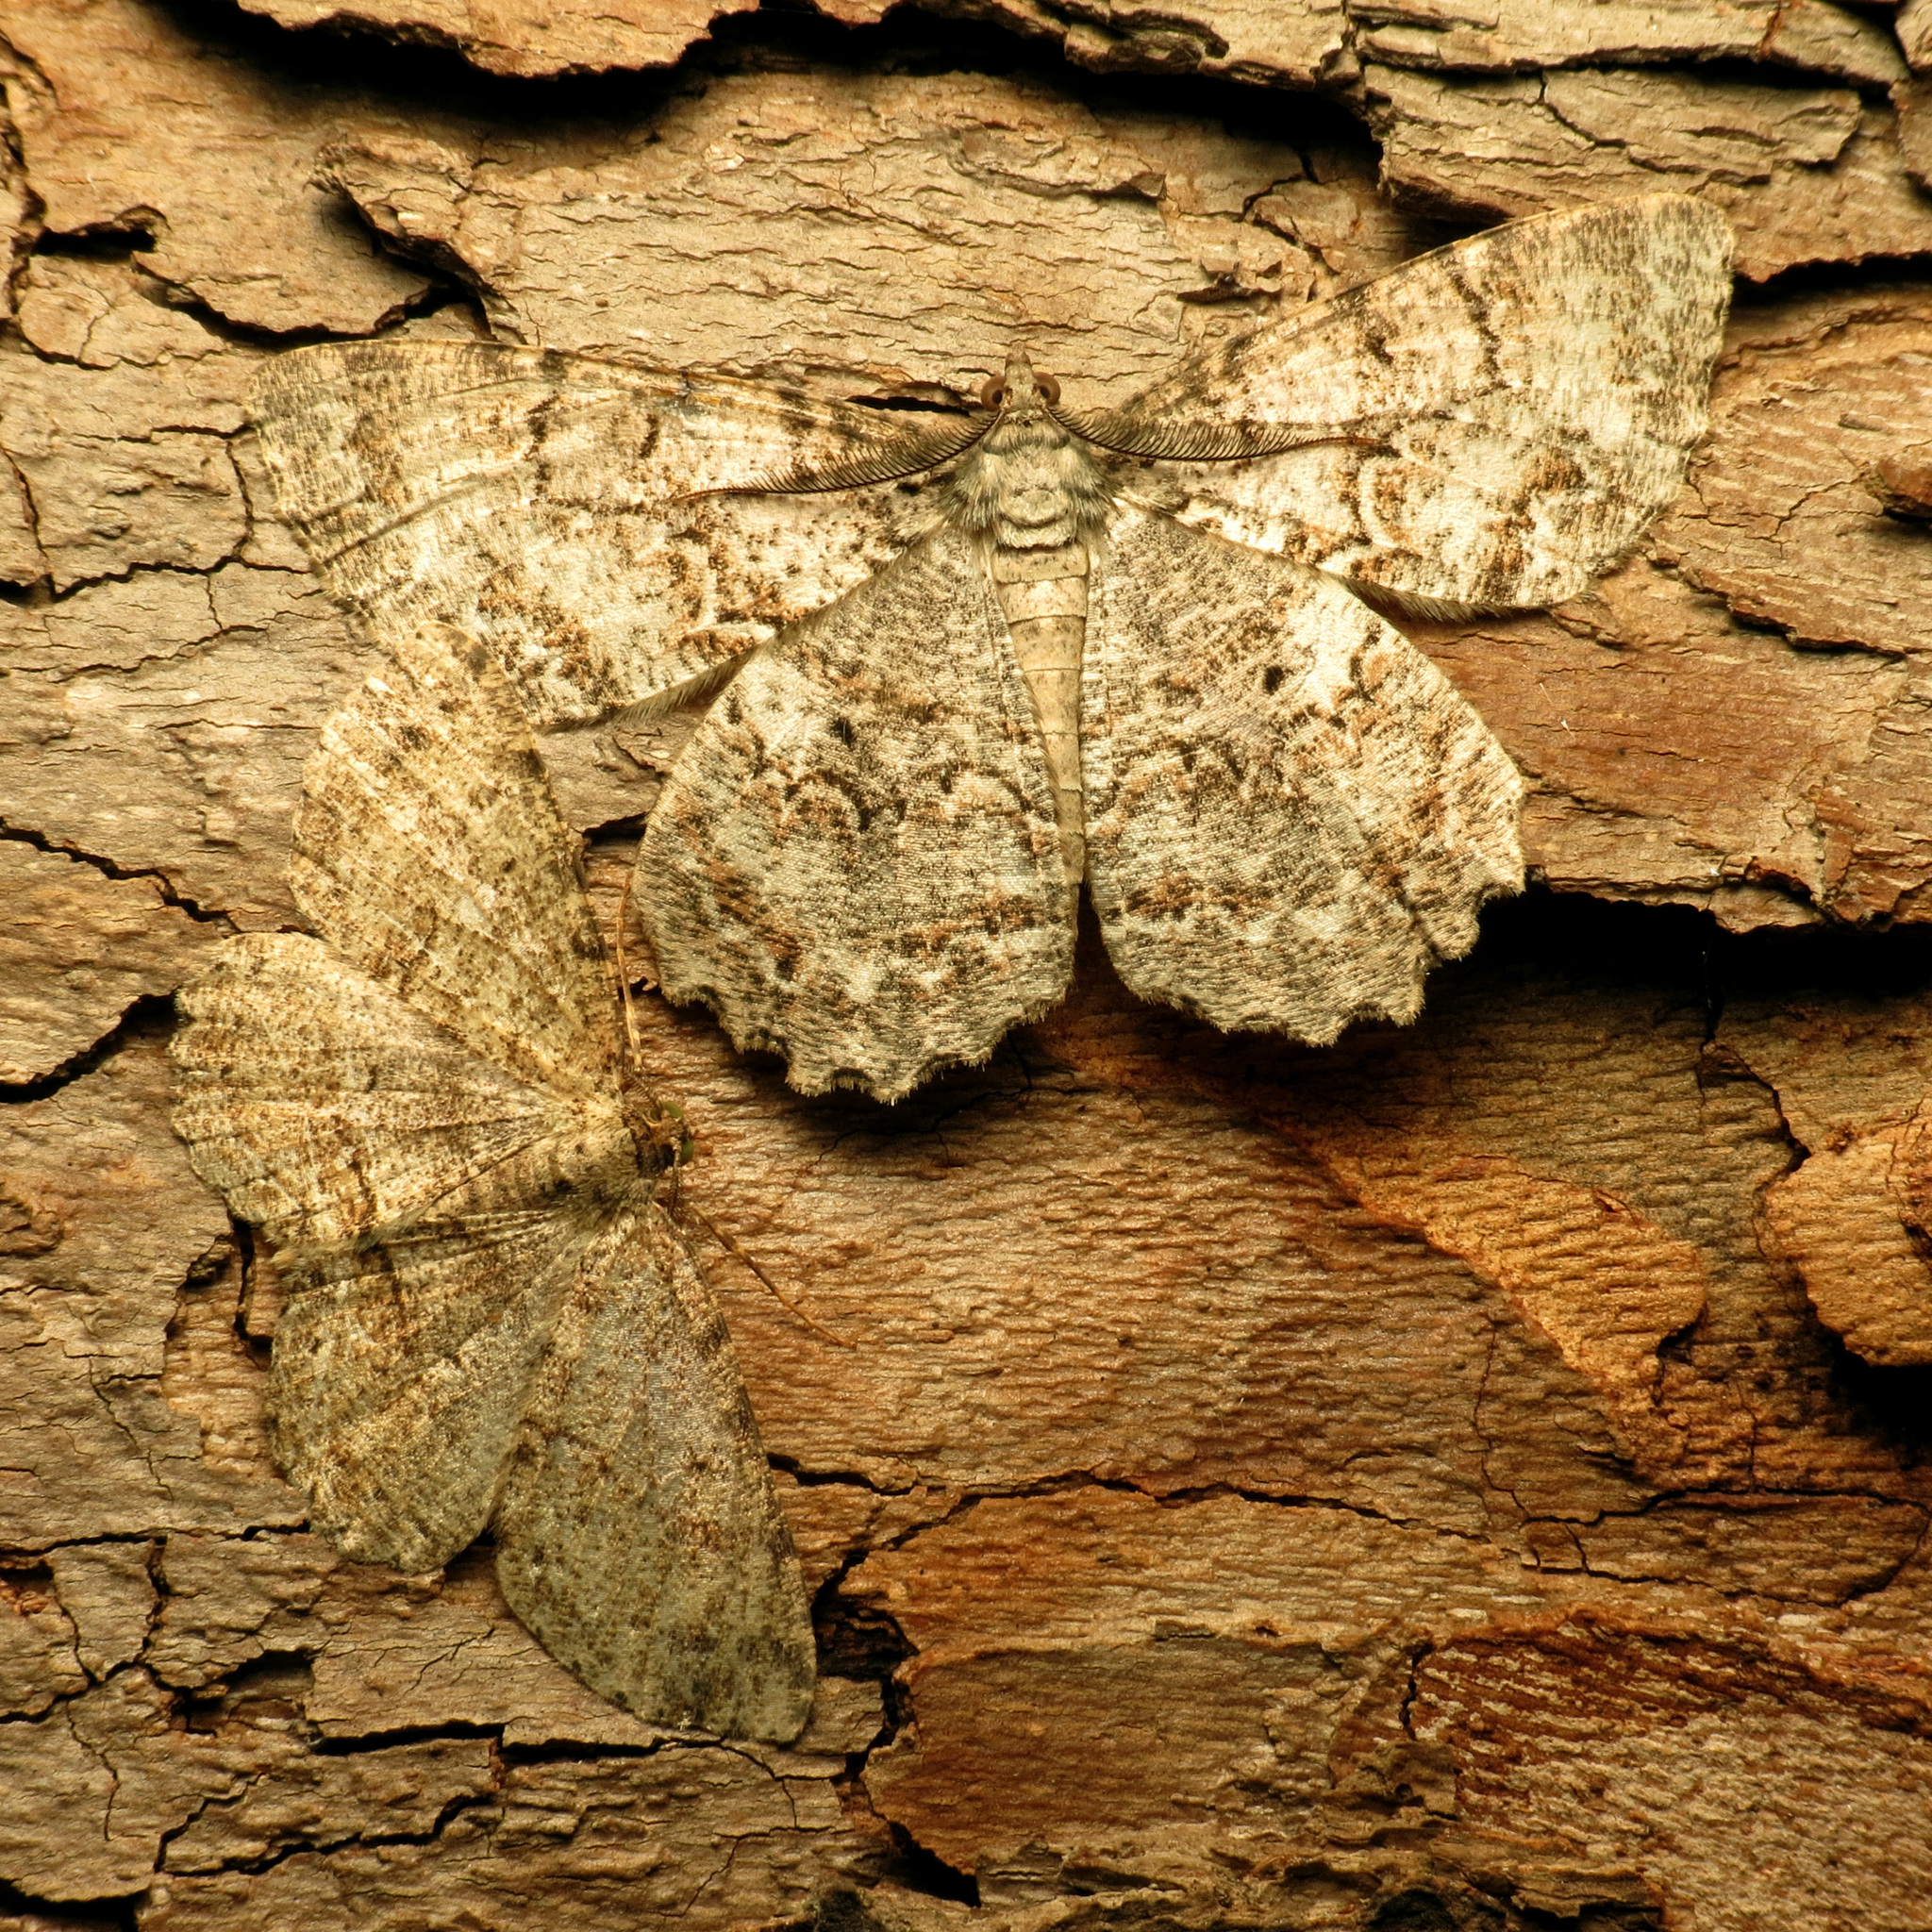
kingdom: Animalia
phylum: Arthropoda
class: Insecta
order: Lepidoptera
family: Geometridae
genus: Epimecis
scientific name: Epimecis hortaria
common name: Tulip-tree beauty
